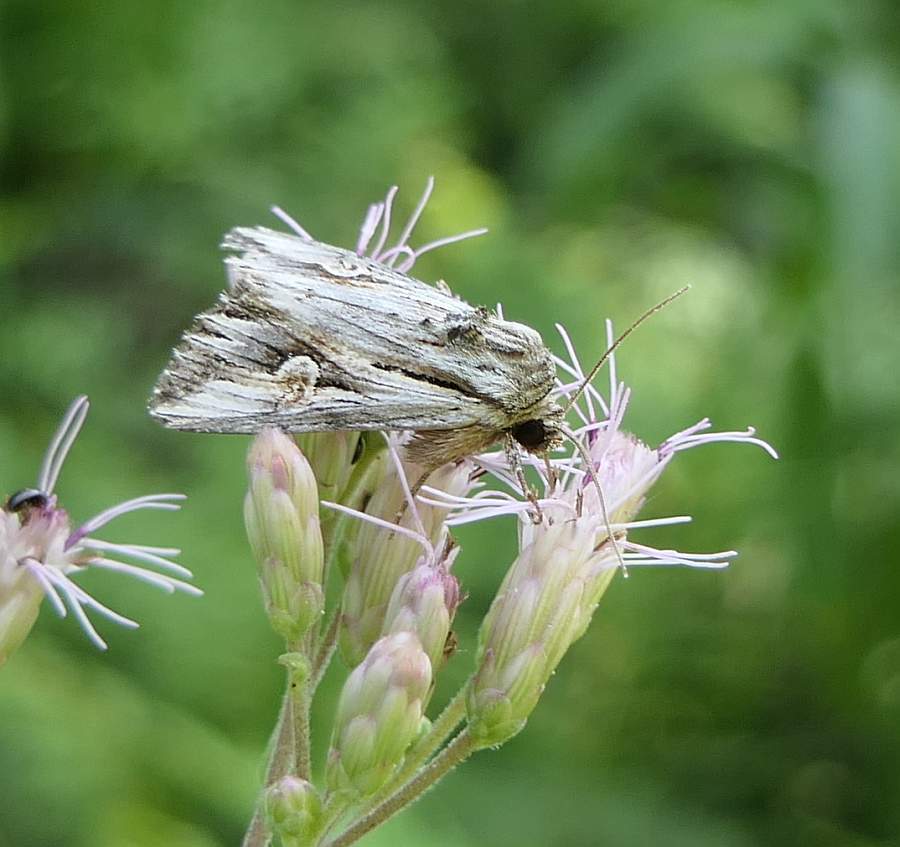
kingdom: Animalia
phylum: Arthropoda
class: Insecta
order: Lepidoptera
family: Noctuidae
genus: Nedra
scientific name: Nedra ramosula
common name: Gray half-spot
